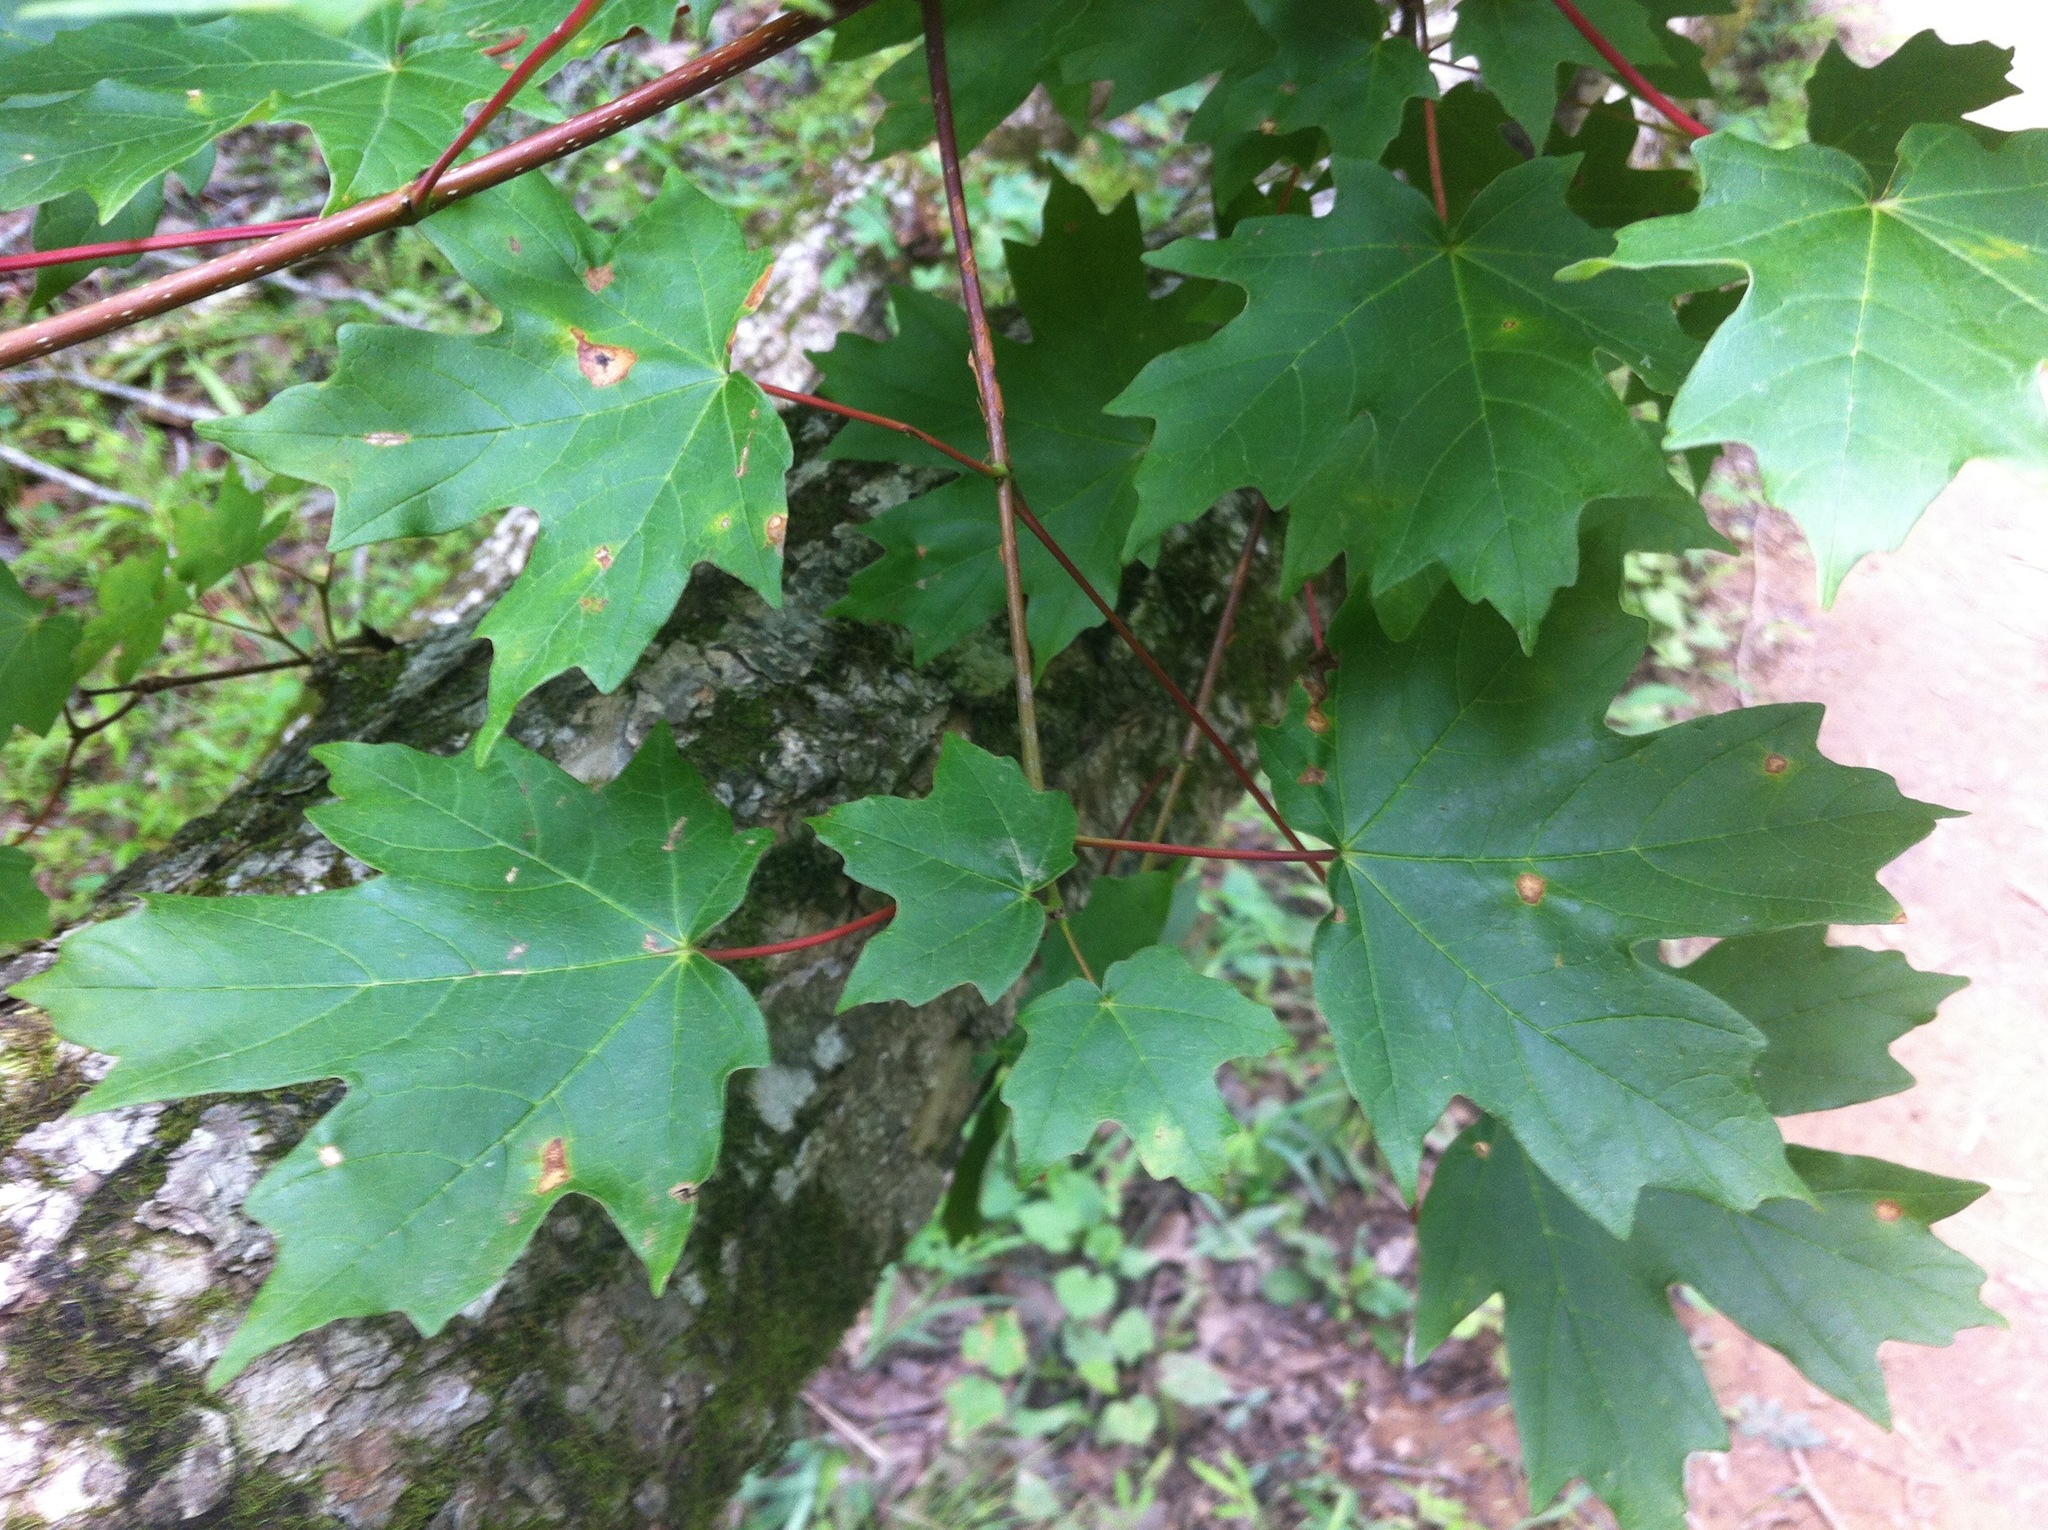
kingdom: Plantae
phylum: Tracheophyta
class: Magnoliopsida
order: Sapindales
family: Sapindaceae
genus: Acer
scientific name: Acer floridanum
